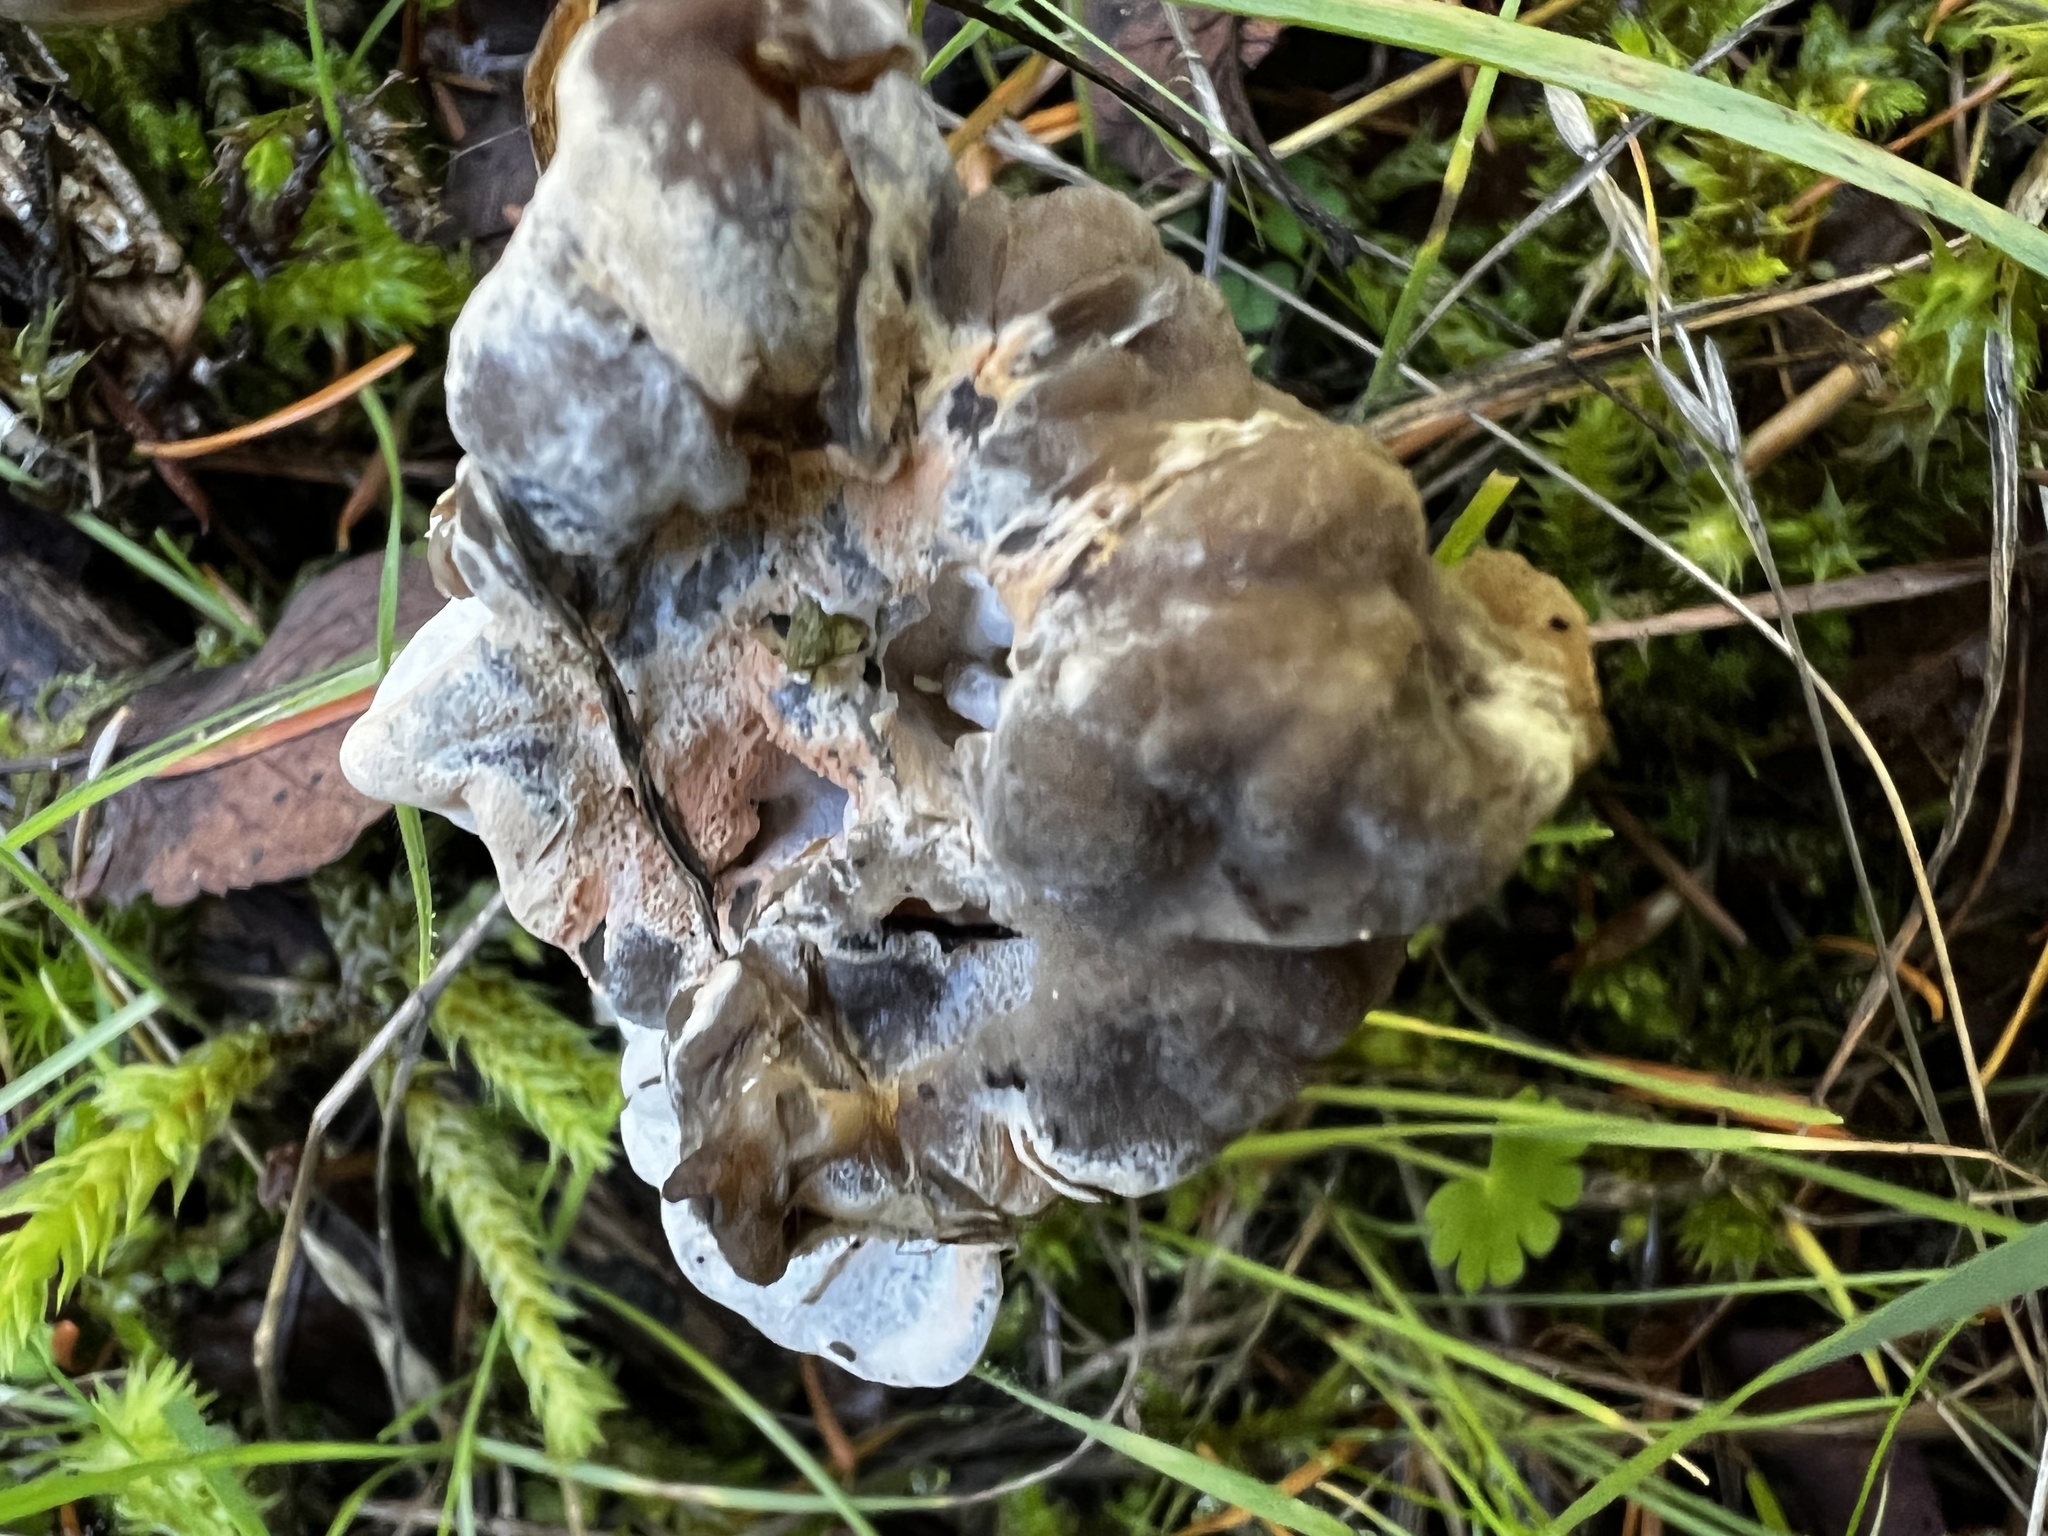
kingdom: Fungi
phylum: Ascomycota
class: Pezizomycetes
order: Pezizales
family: Helvellaceae
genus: Helvella
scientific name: Helvella vespertina
